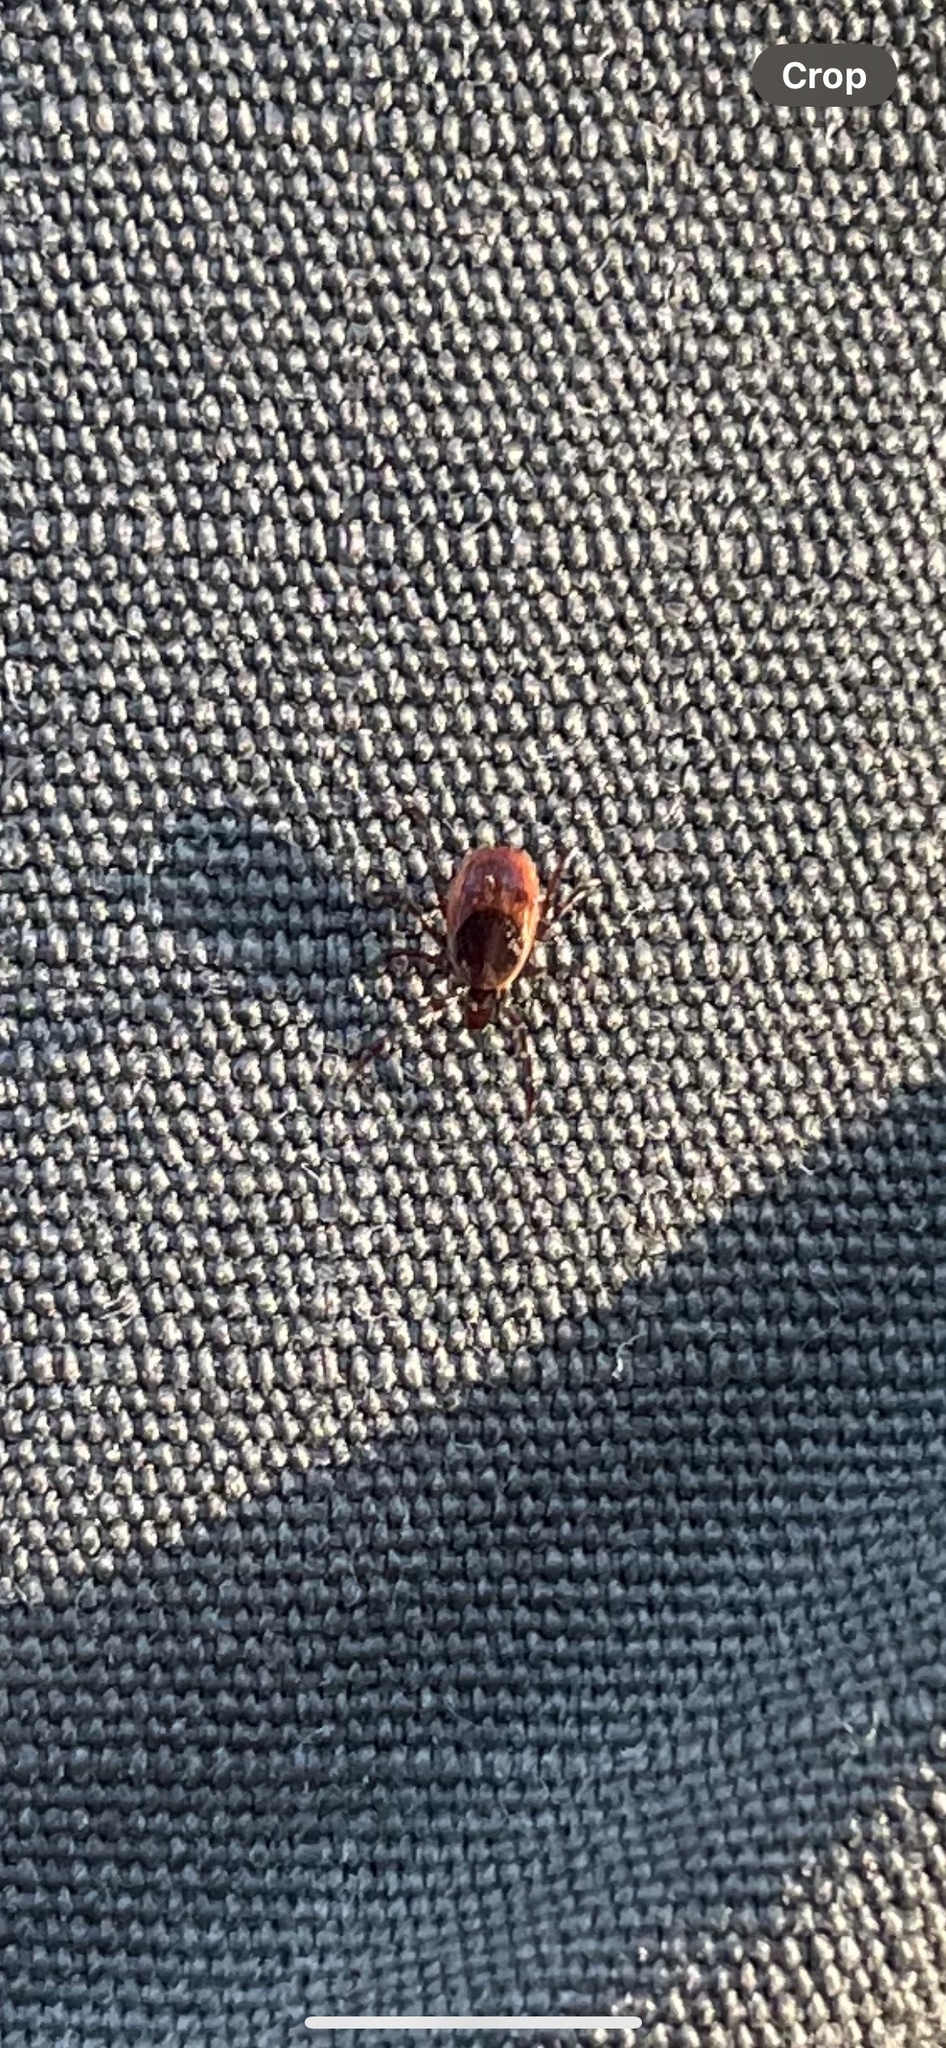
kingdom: Animalia
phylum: Arthropoda
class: Arachnida
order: Ixodida
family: Ixodidae
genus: Ixodes
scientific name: Ixodes scapularis
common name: Black legged tick
